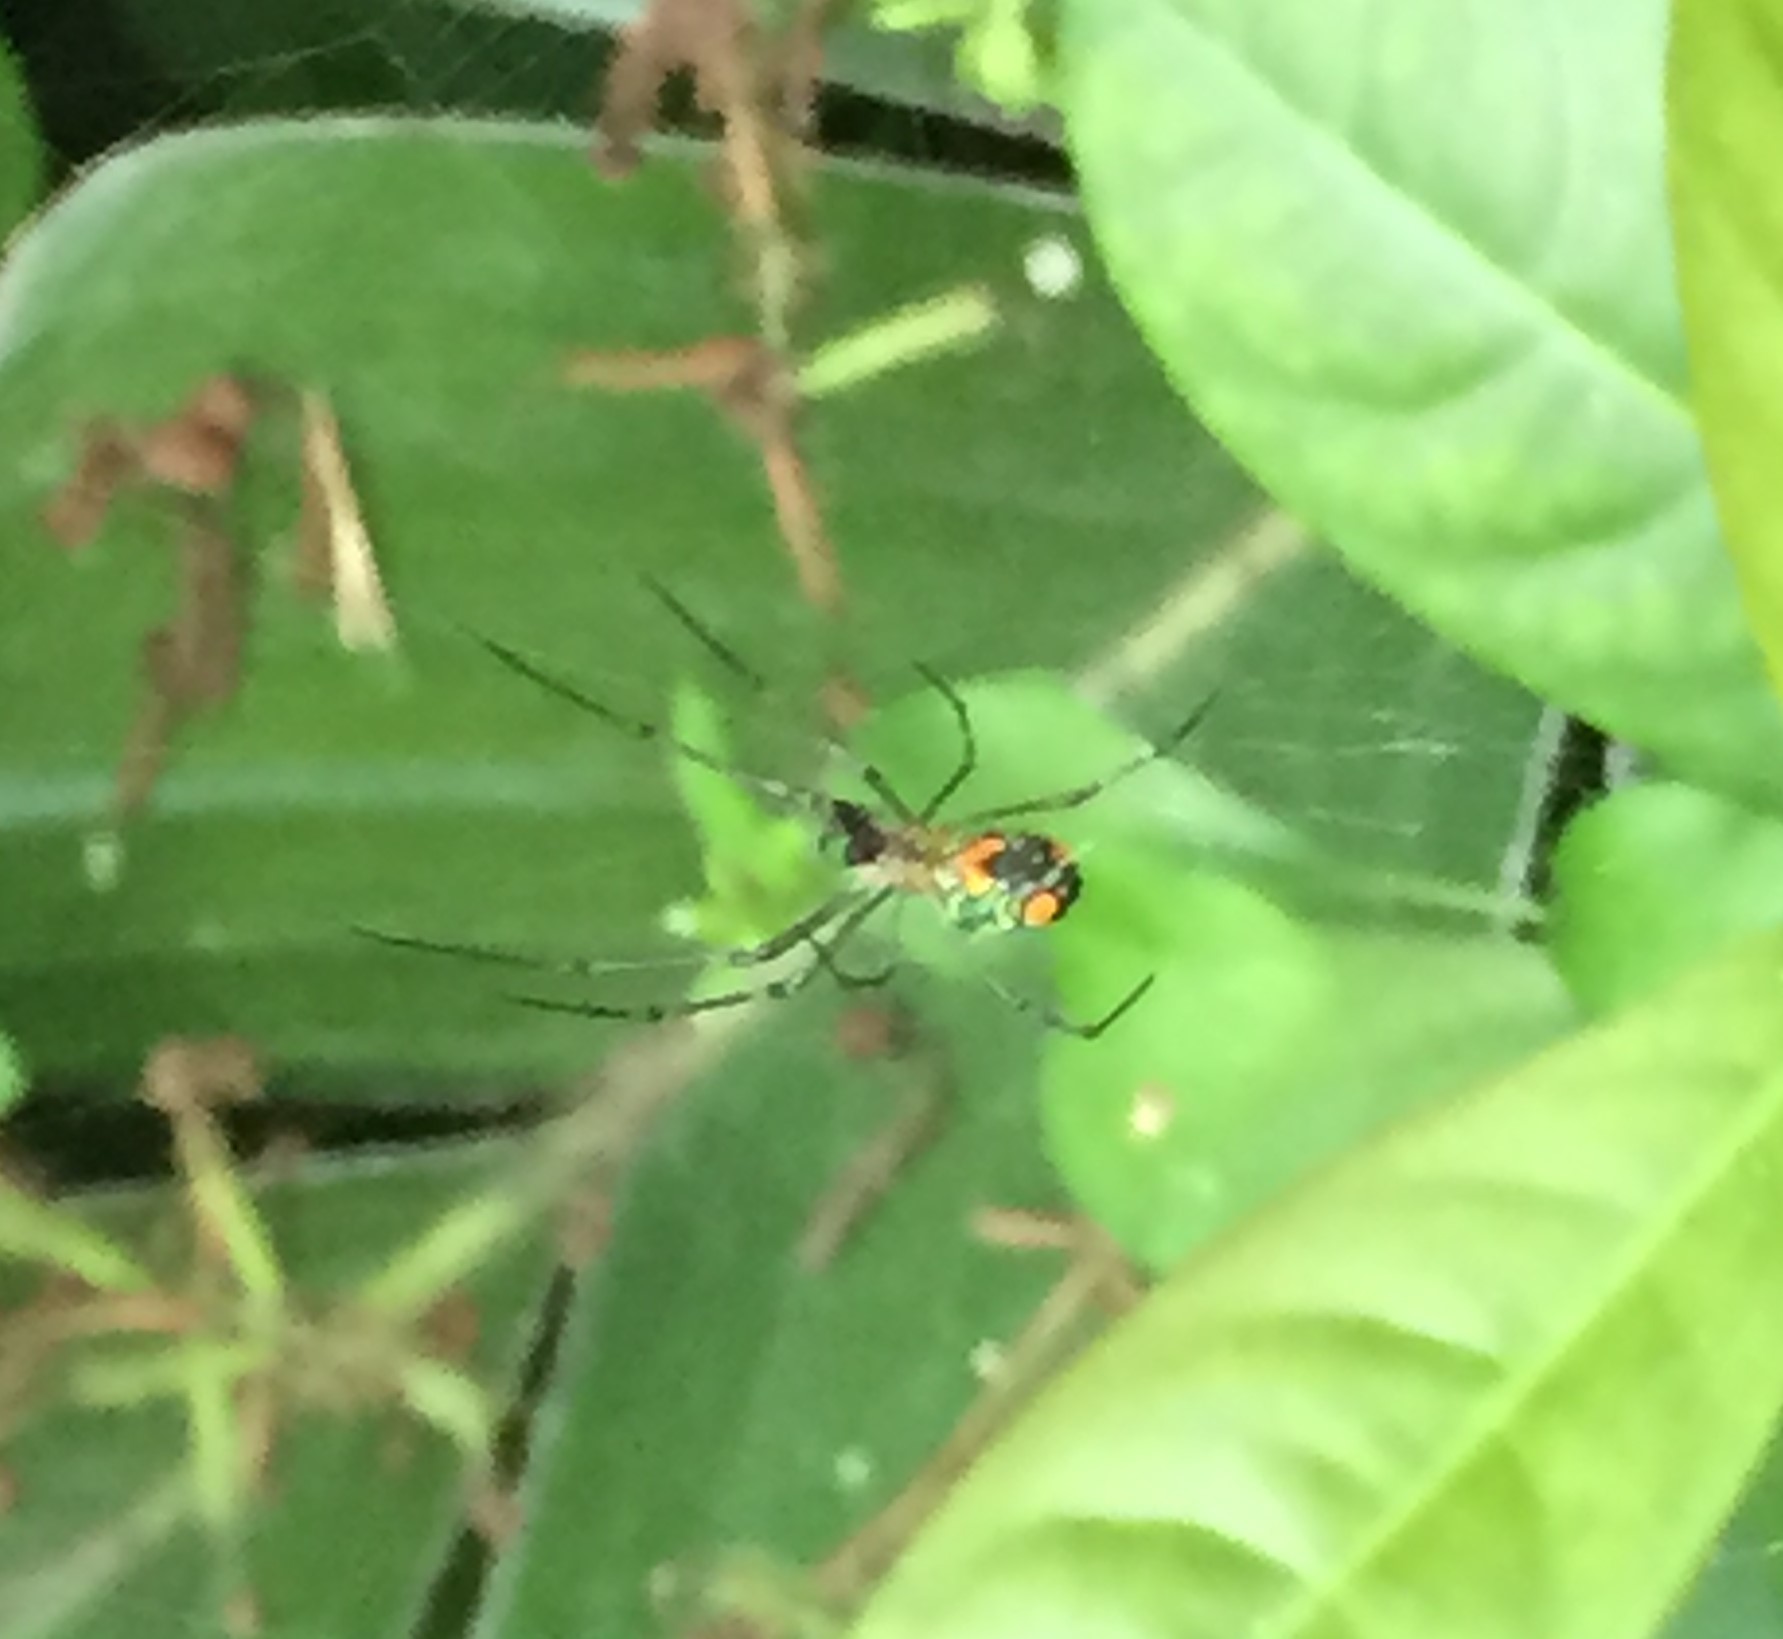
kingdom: Animalia
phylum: Arthropoda
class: Arachnida
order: Araneae
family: Tetragnathidae
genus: Leucauge
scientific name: Leucauge argyrobapta
